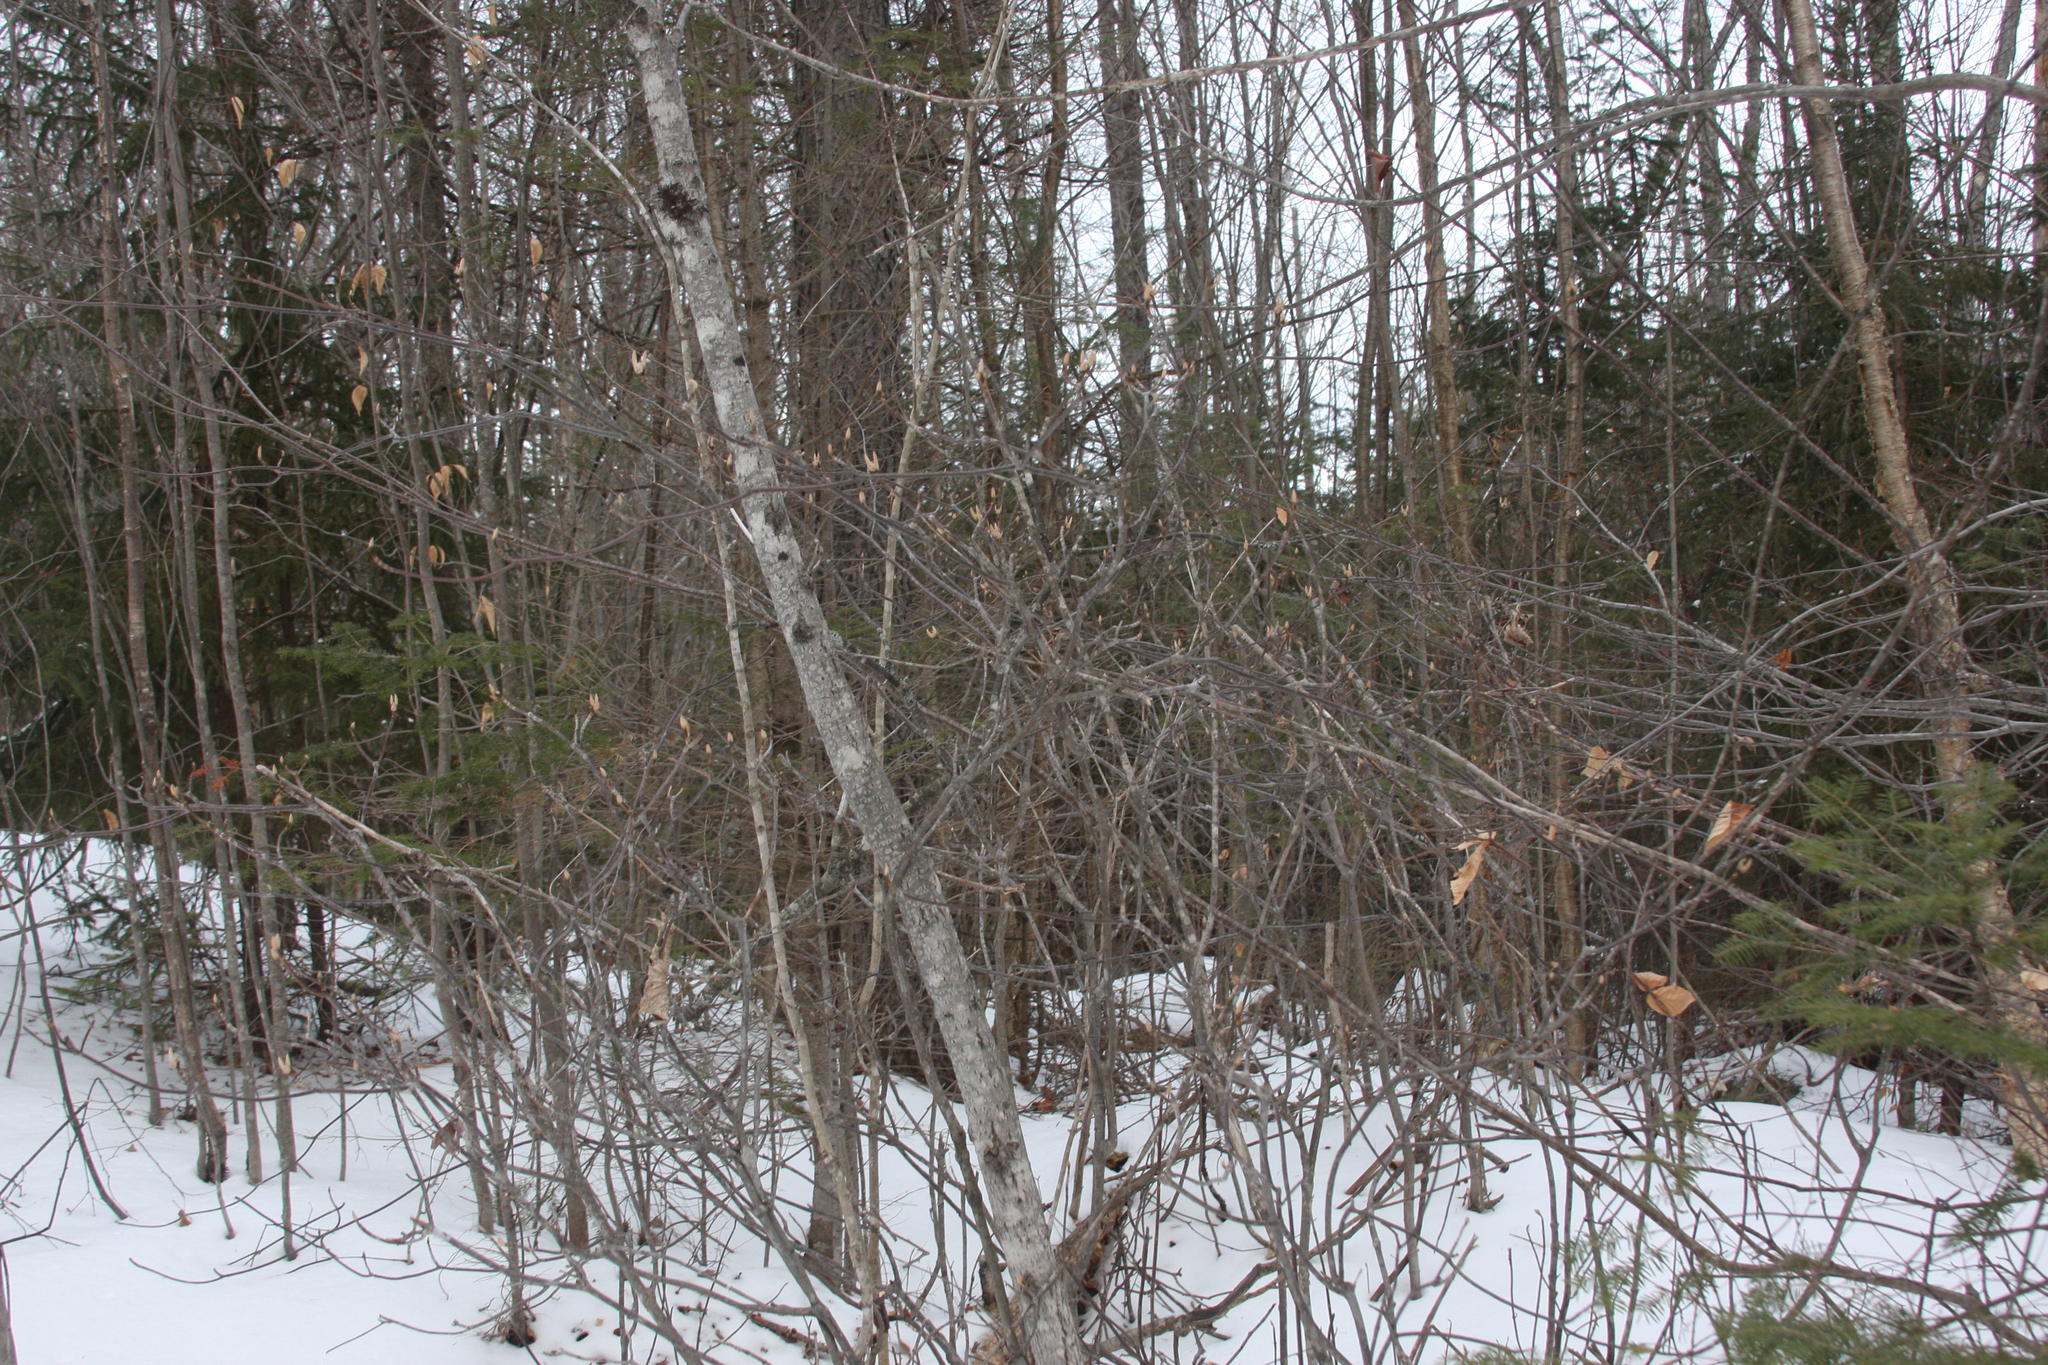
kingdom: Plantae
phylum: Tracheophyta
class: Magnoliopsida
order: Dipsacales
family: Viburnaceae
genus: Viburnum
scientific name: Viburnum lantanoides
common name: Hobblebush
